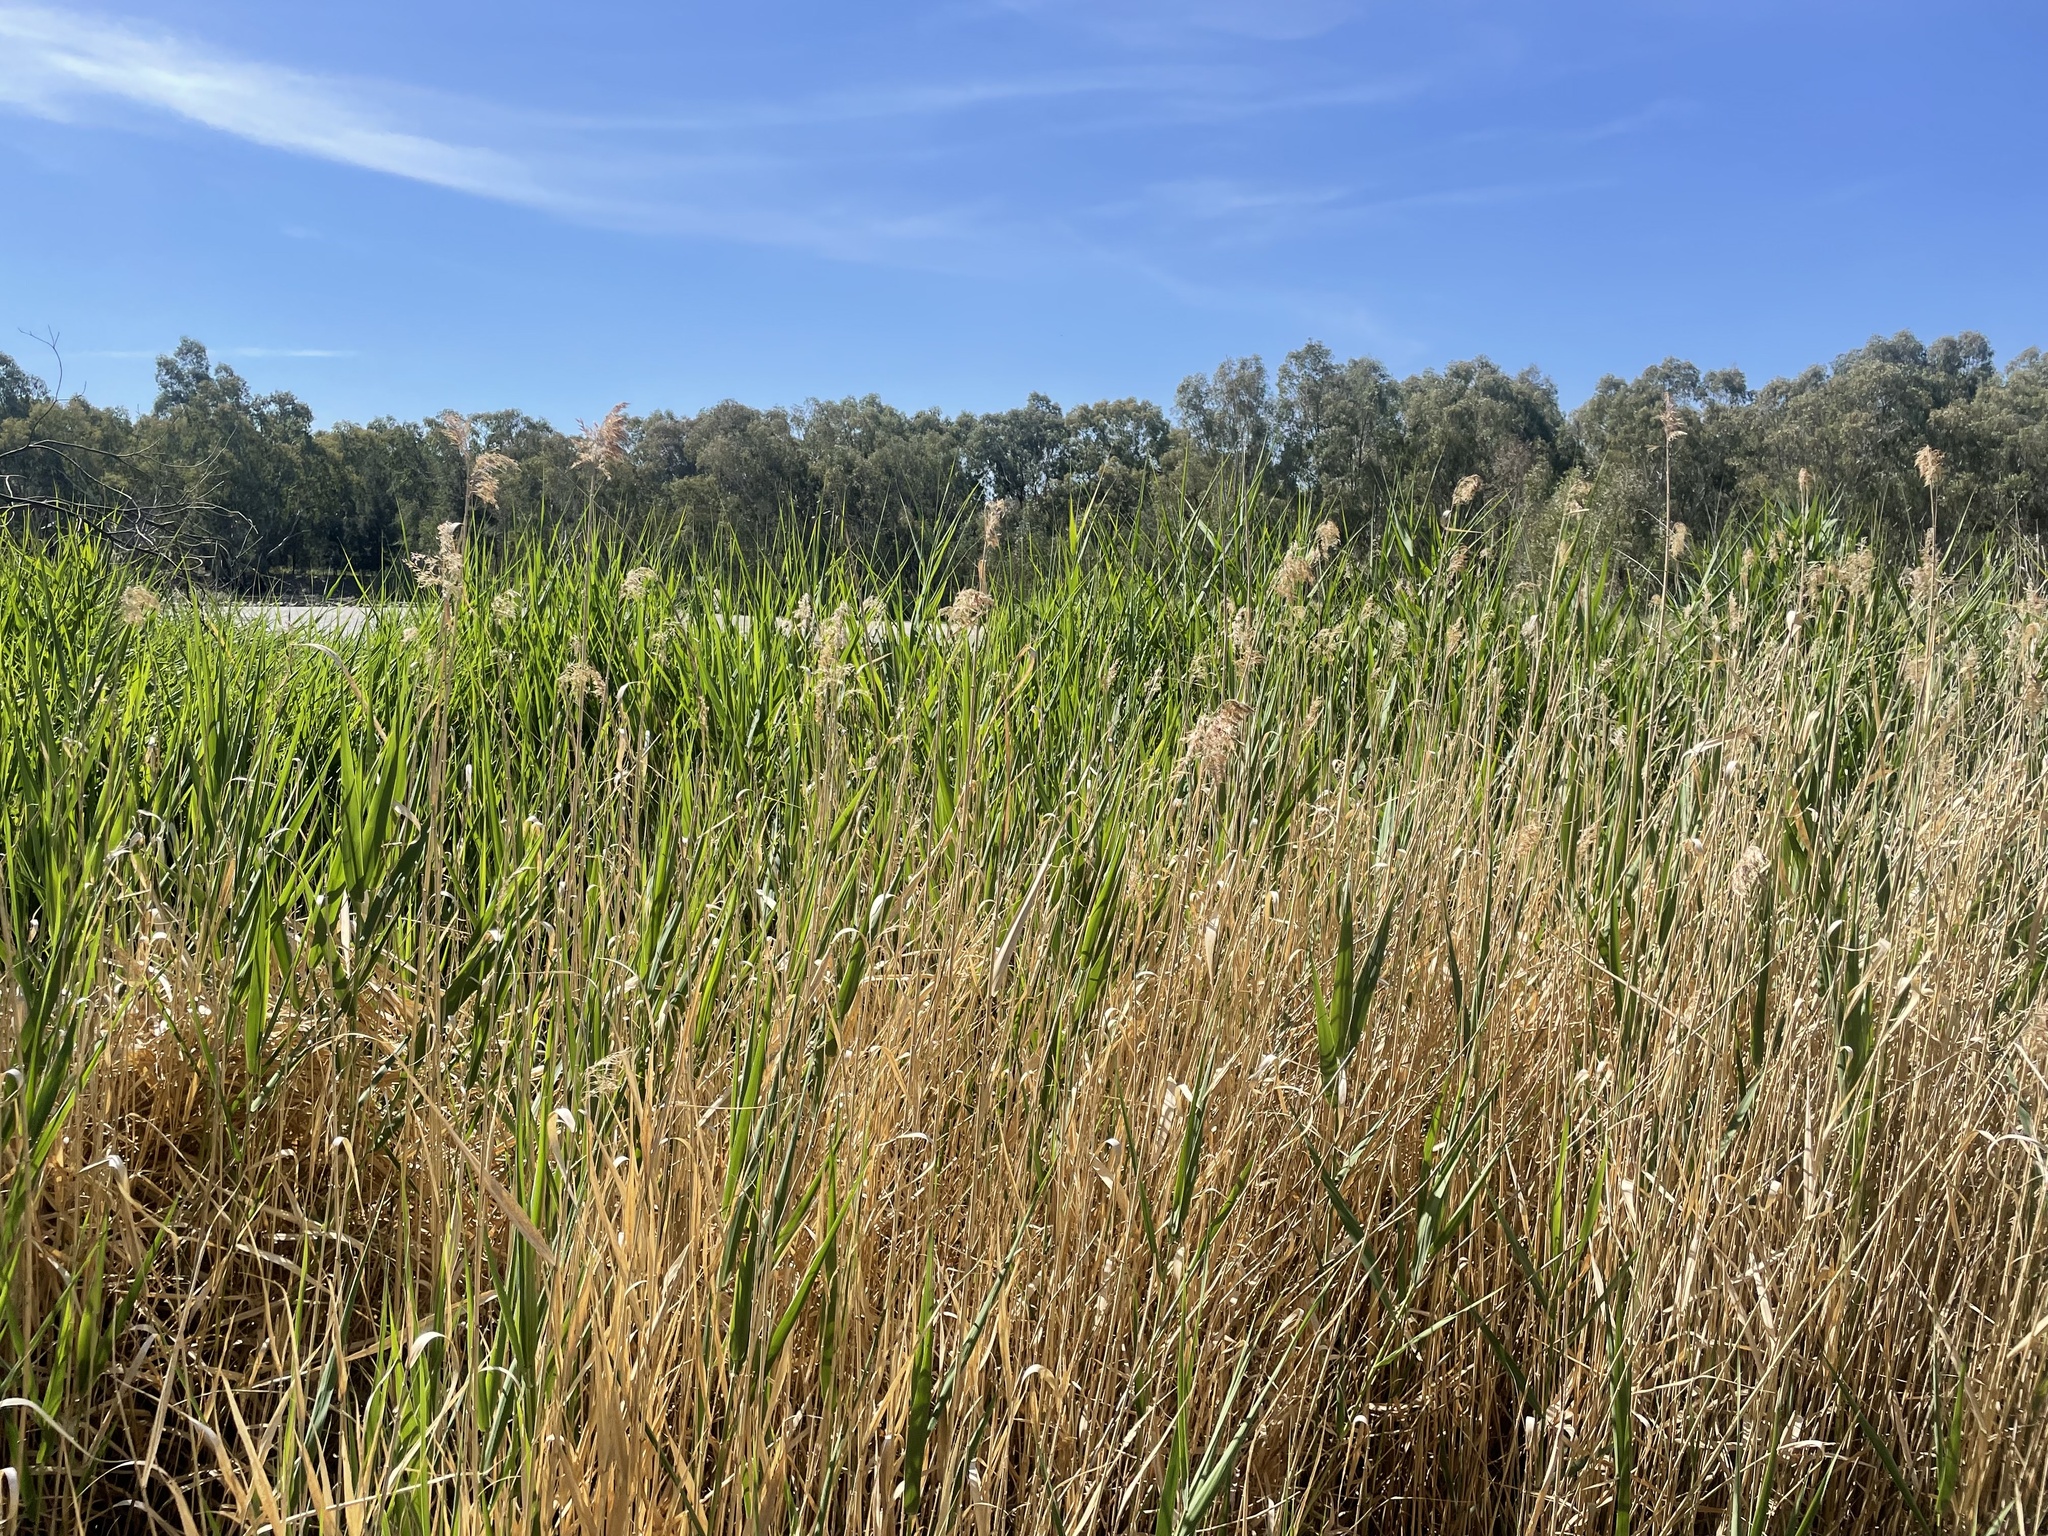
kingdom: Plantae
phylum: Tracheophyta
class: Liliopsida
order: Poales
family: Poaceae
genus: Phragmites
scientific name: Phragmites australis
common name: Common reed
